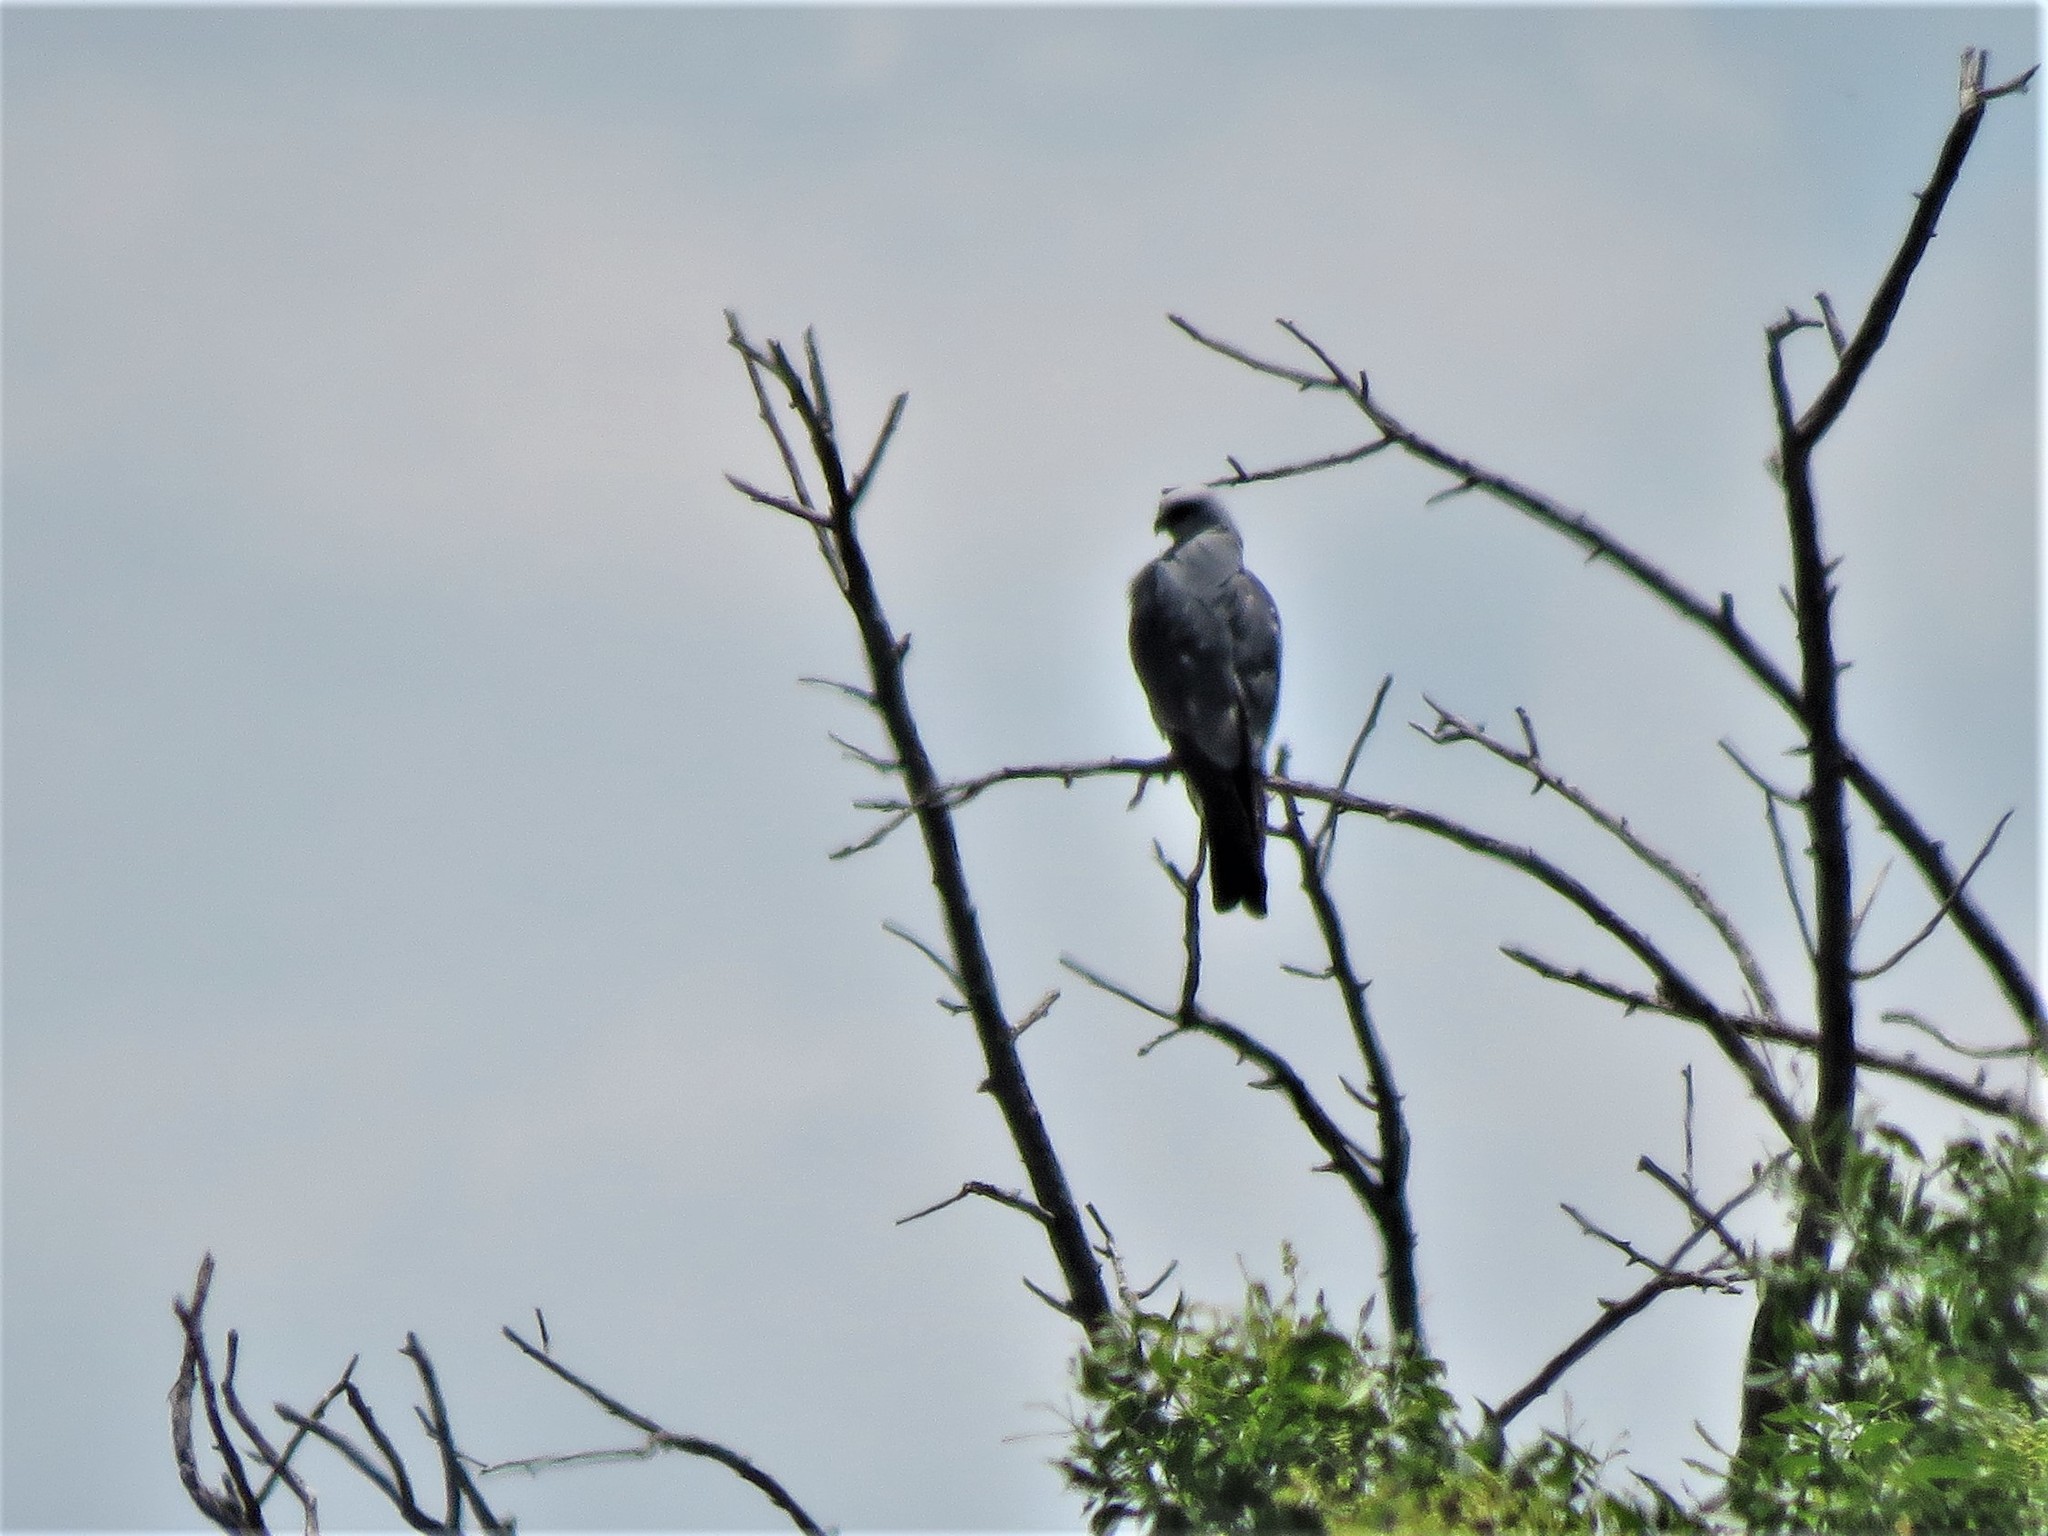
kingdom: Animalia
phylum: Chordata
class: Aves
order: Accipitriformes
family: Accipitridae
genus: Ictinia
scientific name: Ictinia mississippiensis
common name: Mississippi kite
